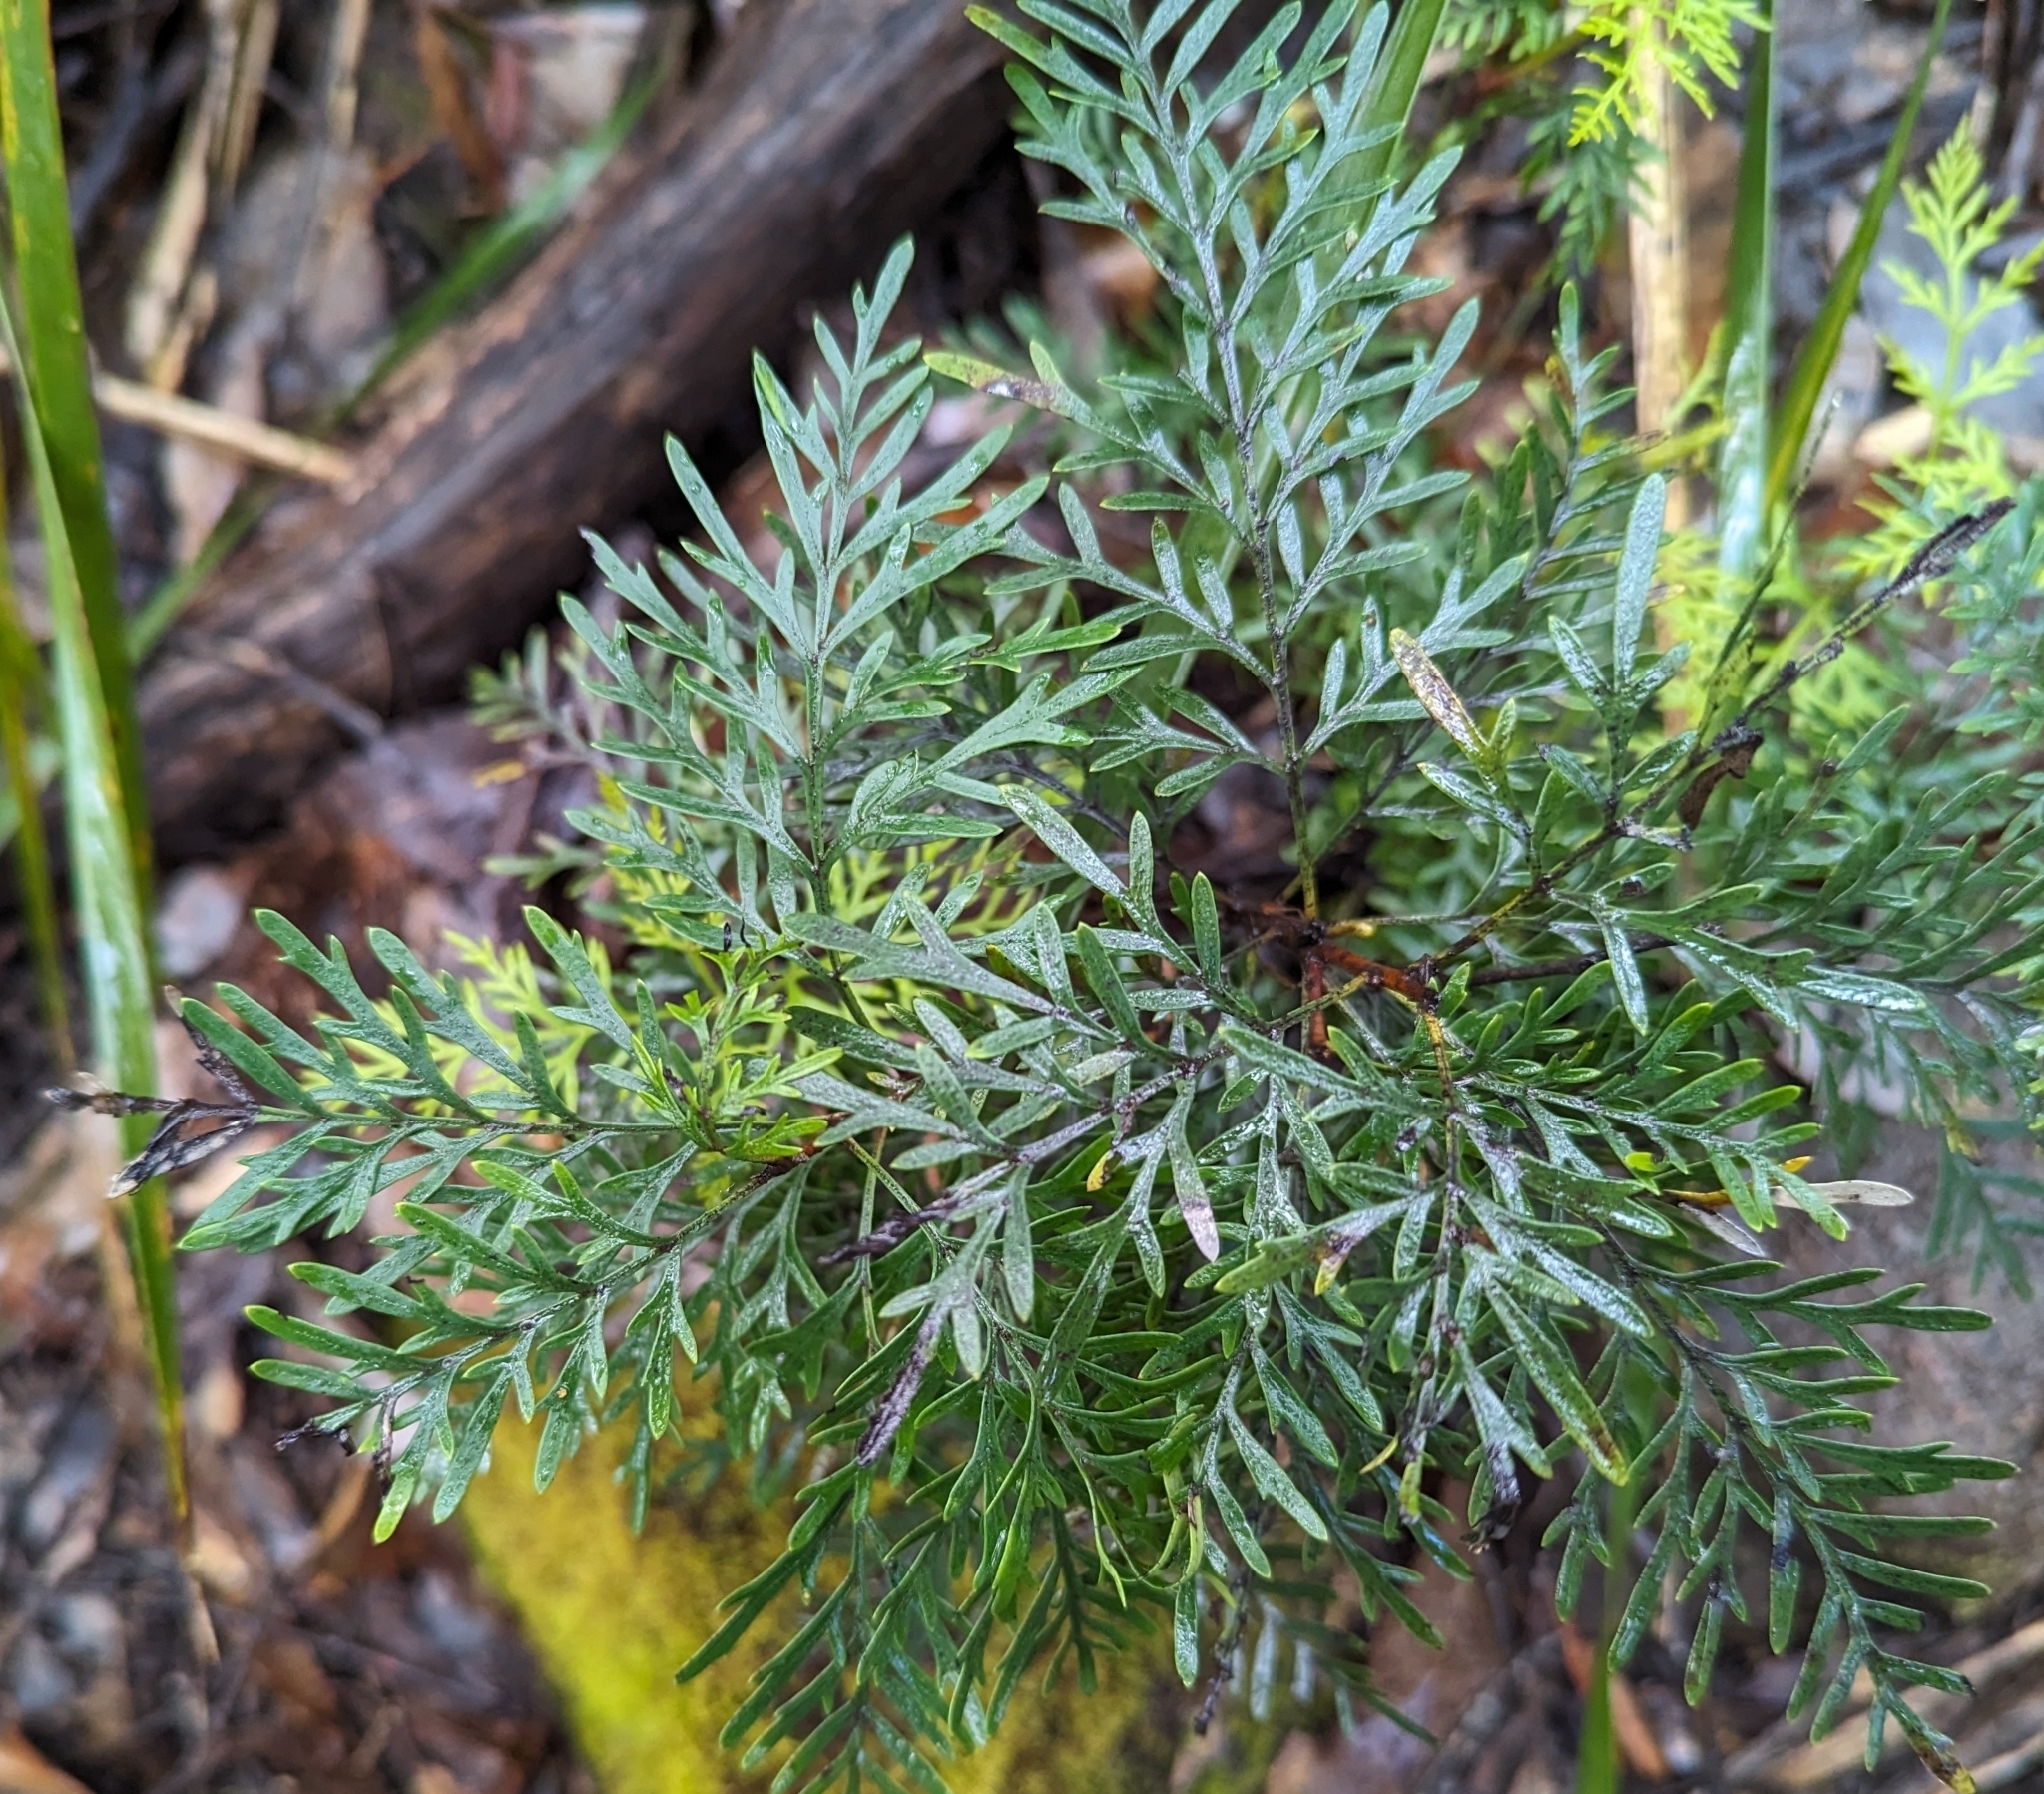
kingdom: Plantae
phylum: Tracheophyta
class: Magnoliopsida
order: Proteales
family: Proteaceae
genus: Lomatia
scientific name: Lomatia tinctoria
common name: Guitar plant
